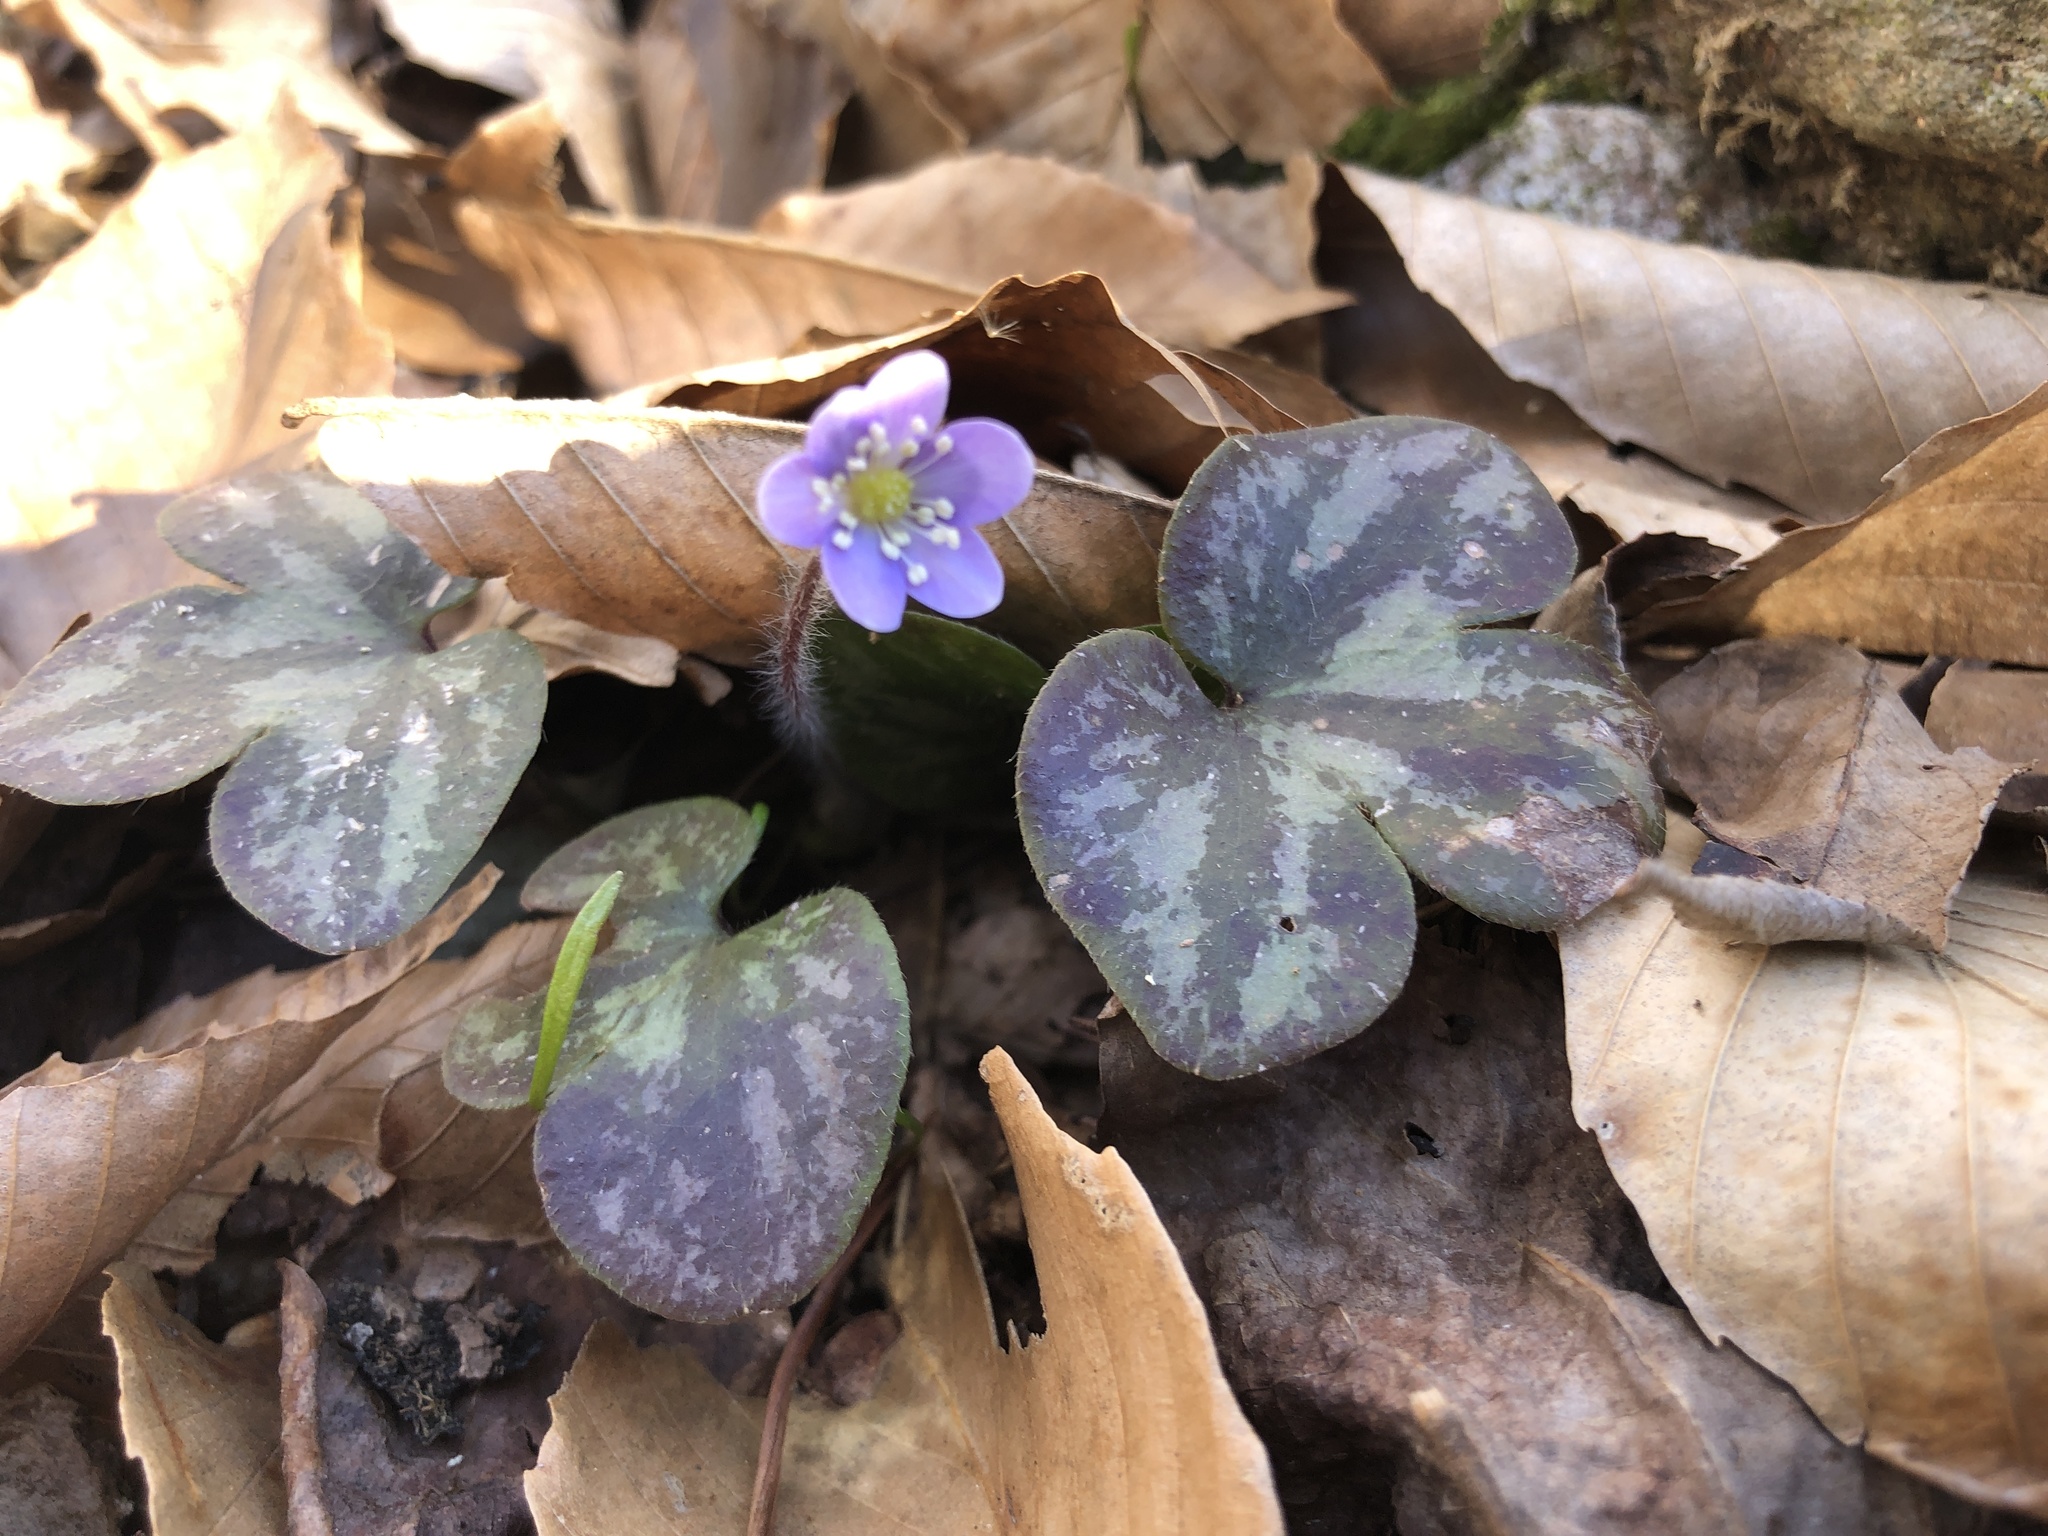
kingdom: Plantae
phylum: Tracheophyta
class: Magnoliopsida
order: Ranunculales
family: Ranunculaceae
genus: Hepatica
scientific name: Hepatica americana
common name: American hepatica
